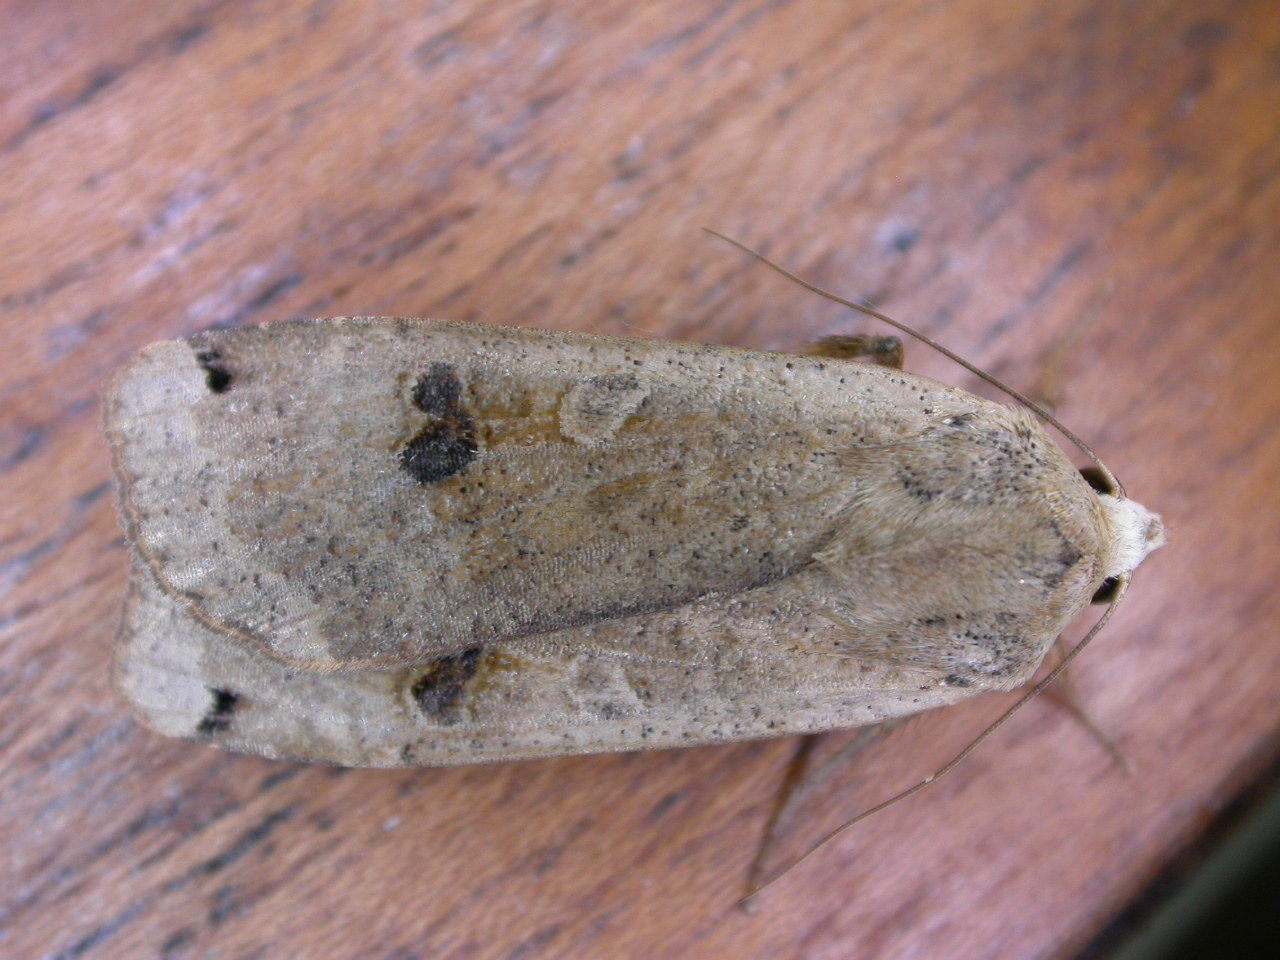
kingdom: Animalia
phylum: Arthropoda
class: Insecta
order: Lepidoptera
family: Noctuidae
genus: Noctua
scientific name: Noctua pronuba
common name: Large yellow underwing
